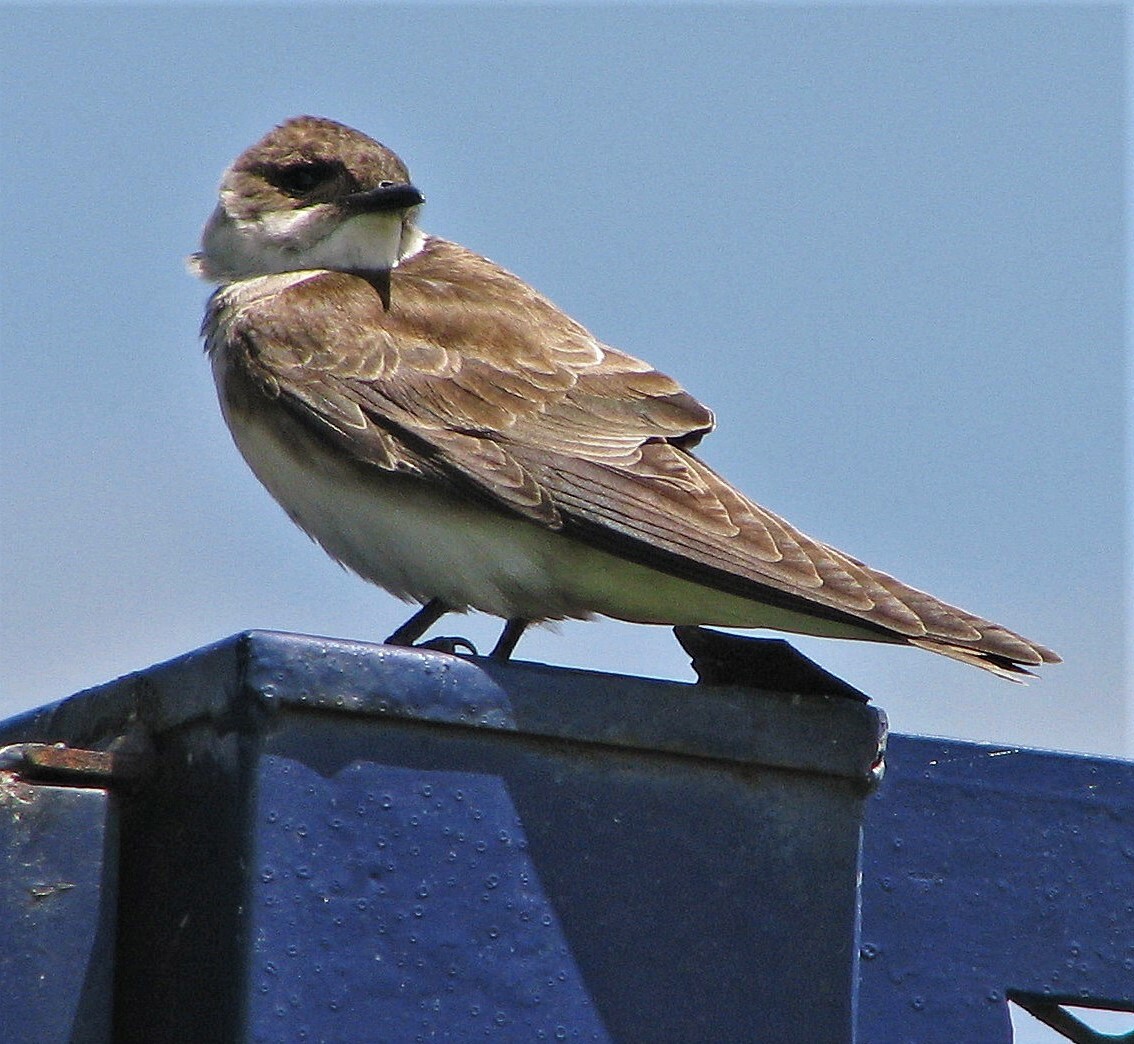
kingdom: Animalia
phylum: Chordata
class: Aves
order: Passeriformes
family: Hirundinidae
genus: Progne
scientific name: Progne tapera
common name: Brown-chested martin
